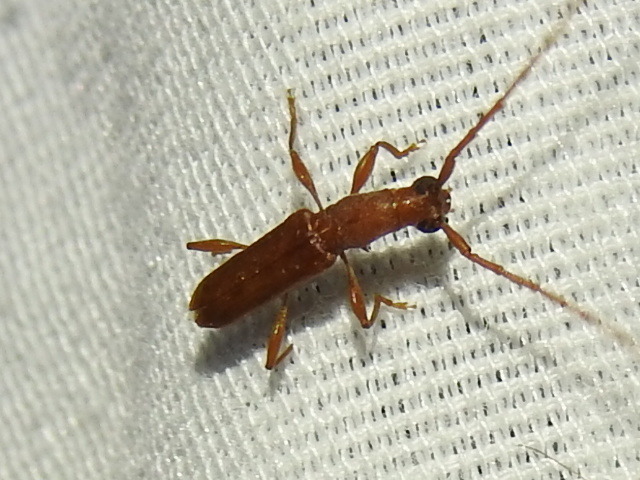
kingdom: Animalia
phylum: Arthropoda
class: Insecta
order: Coleoptera
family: Cerambycidae
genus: Hypexilis
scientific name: Hypexilis pallida
